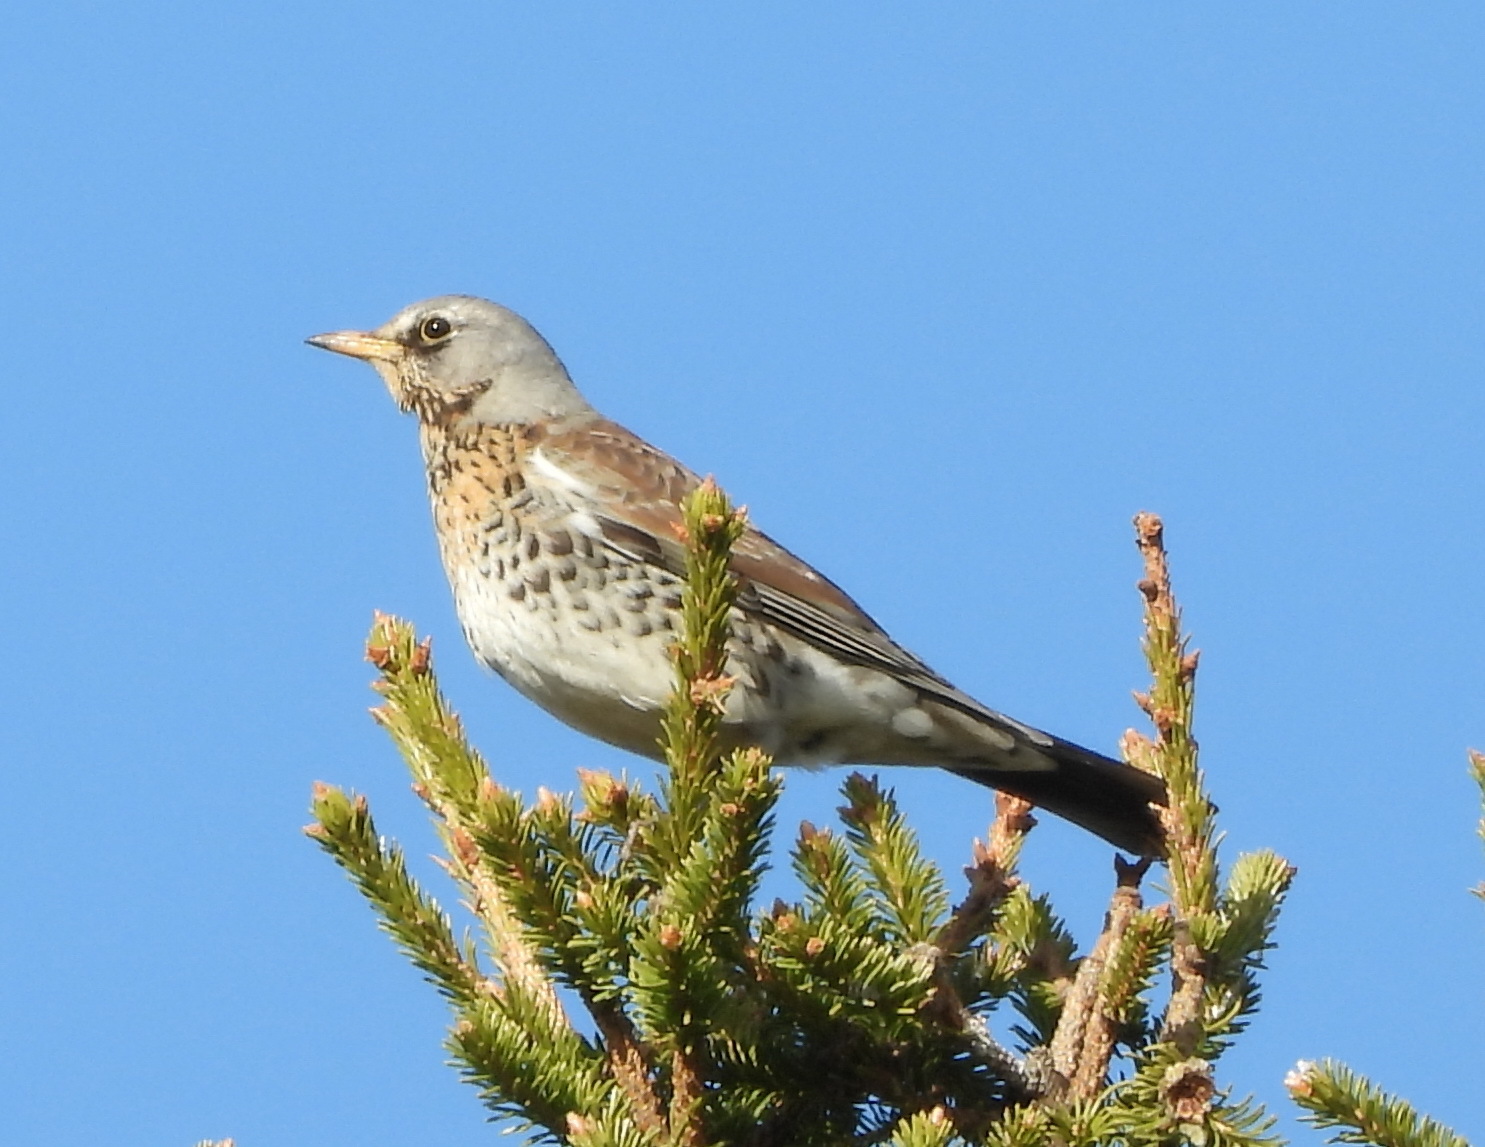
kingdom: Animalia
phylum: Chordata
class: Aves
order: Passeriformes
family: Turdidae
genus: Turdus
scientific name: Turdus pilaris
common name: Fieldfare
